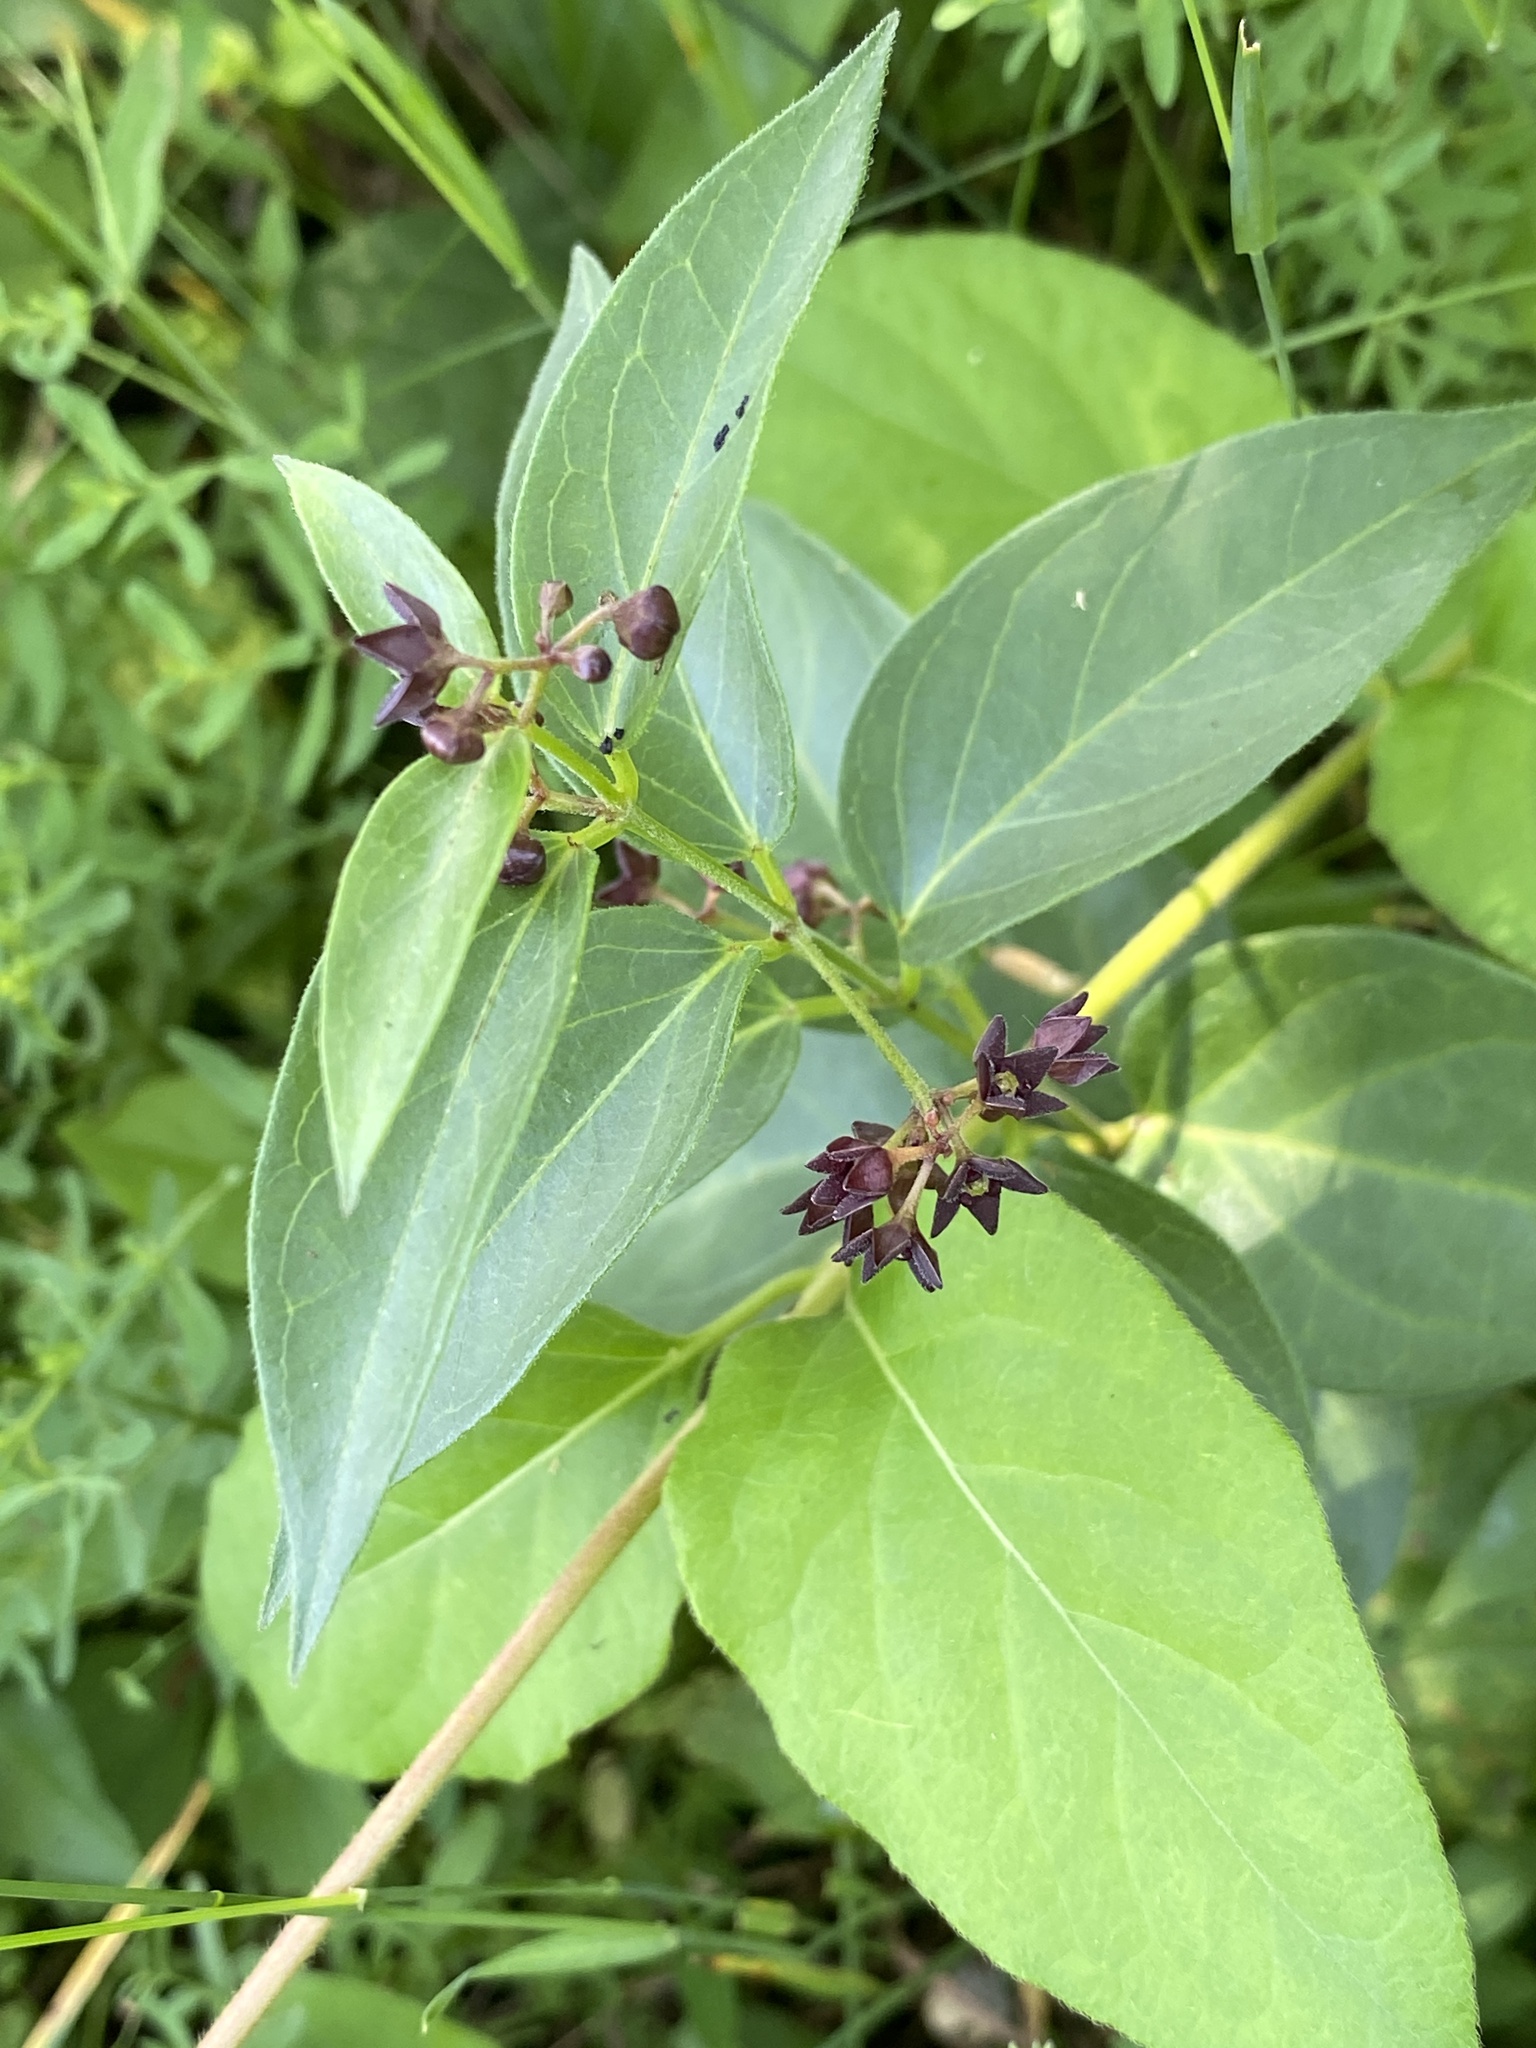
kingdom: Plantae
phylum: Tracheophyta
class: Magnoliopsida
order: Gentianales
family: Apocynaceae
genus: Vincetoxicum
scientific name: Vincetoxicum nigrum
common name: Black swallow-wort
